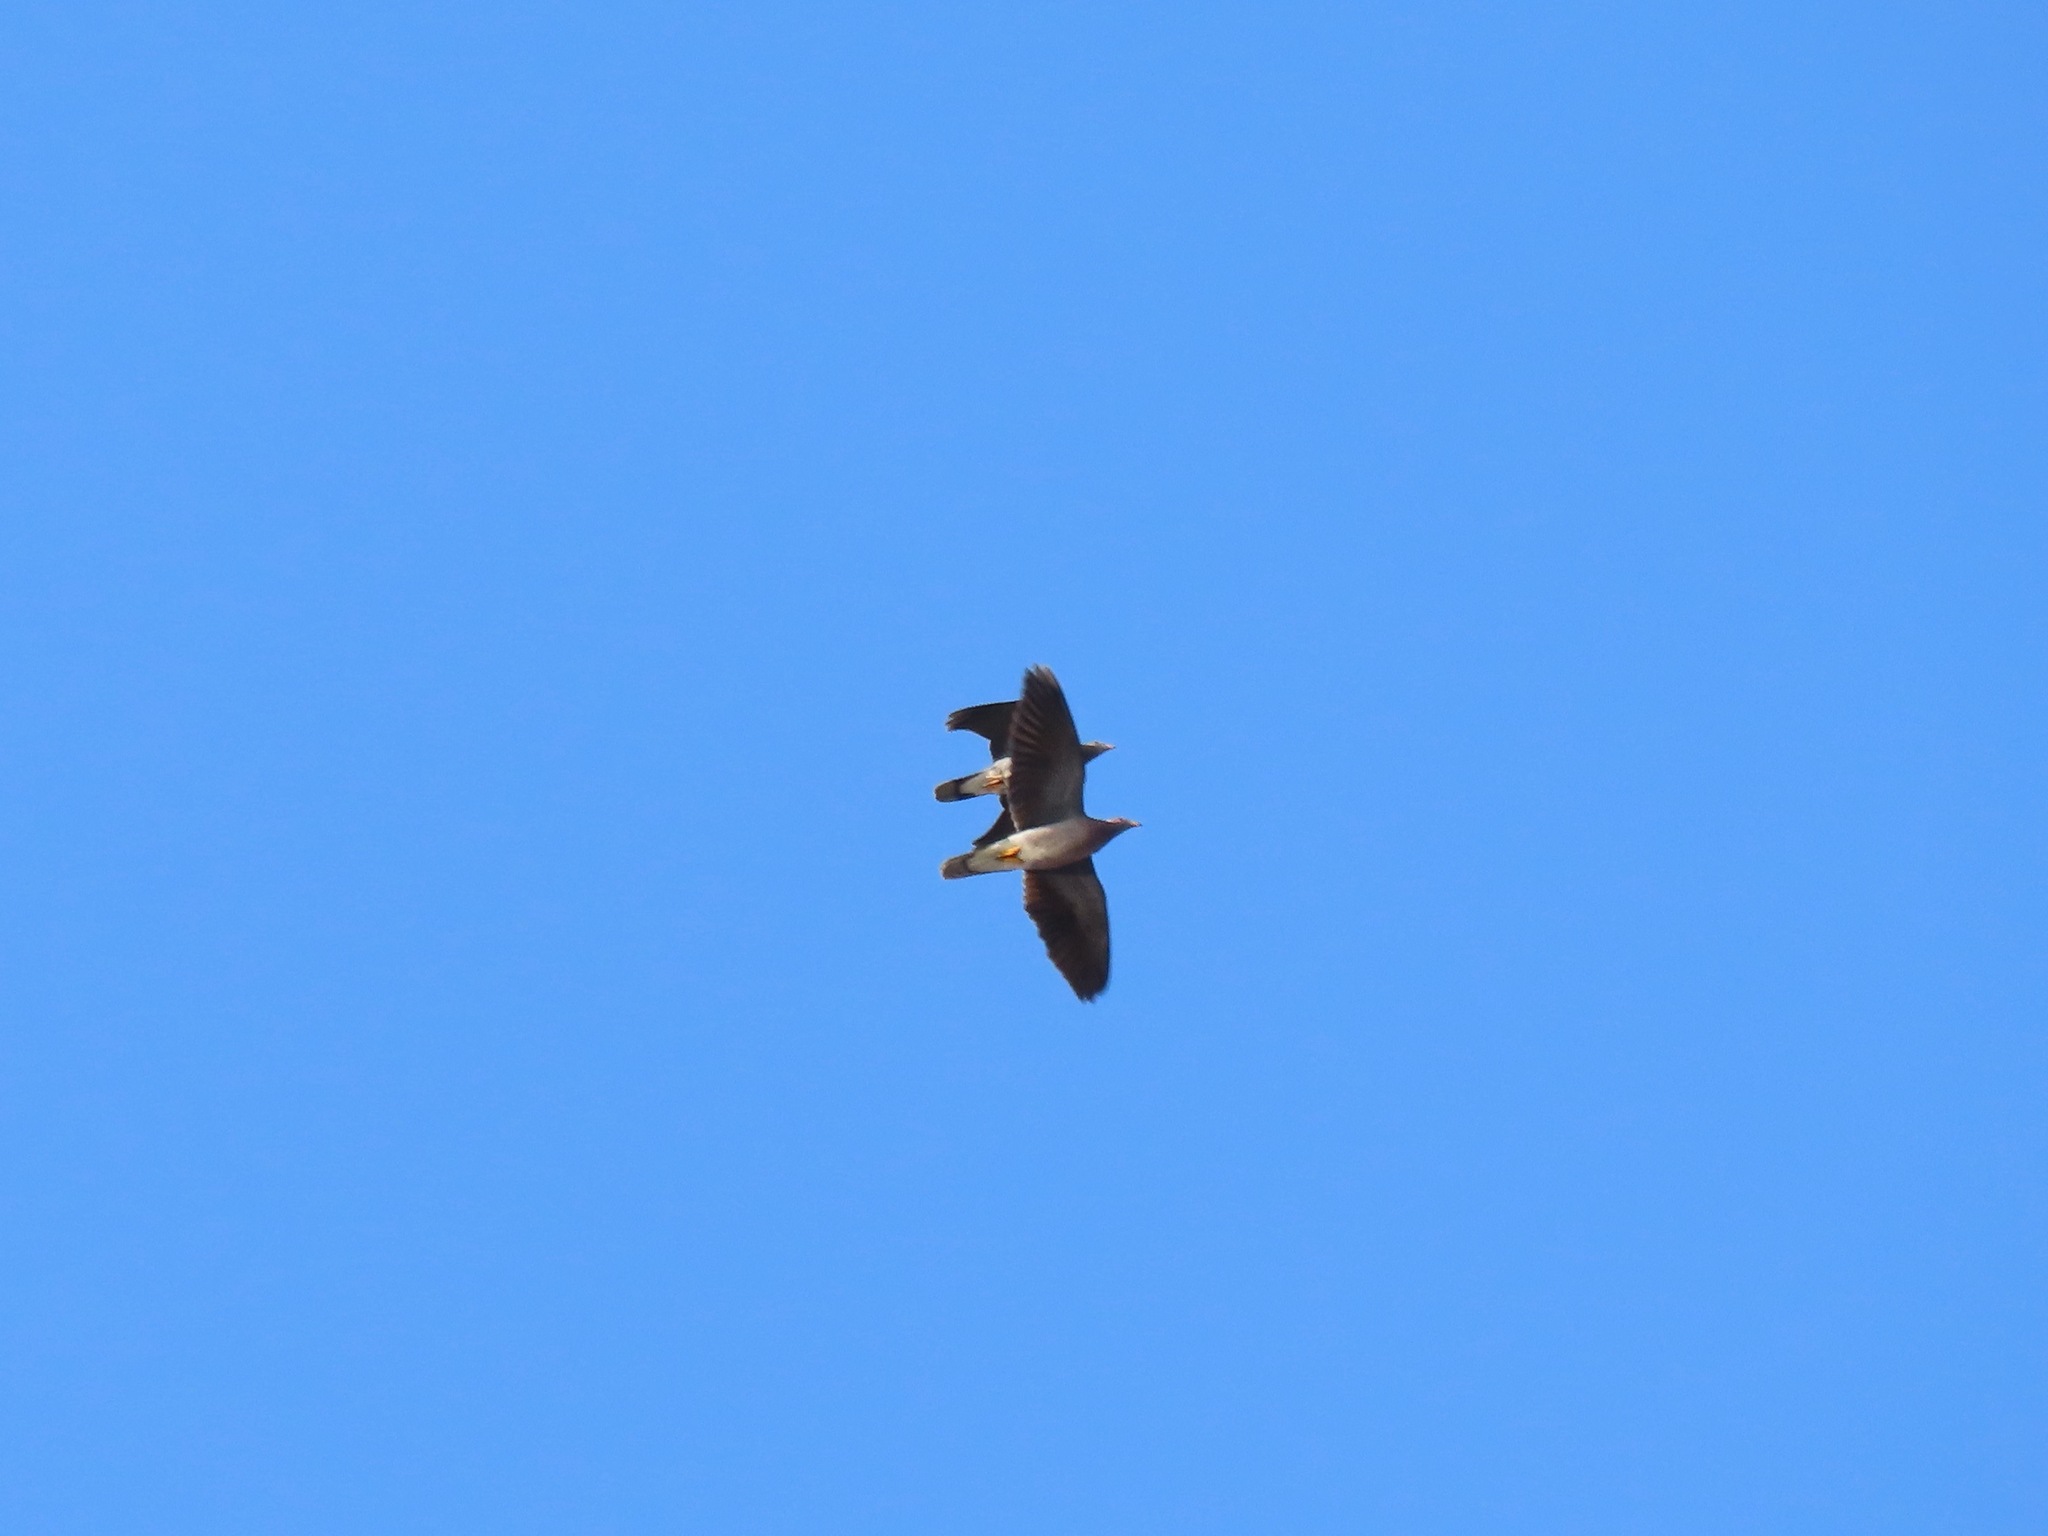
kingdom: Animalia
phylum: Chordata
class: Aves
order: Columbiformes
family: Columbidae
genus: Patagioenas
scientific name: Patagioenas fasciata
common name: Band-tailed pigeon
